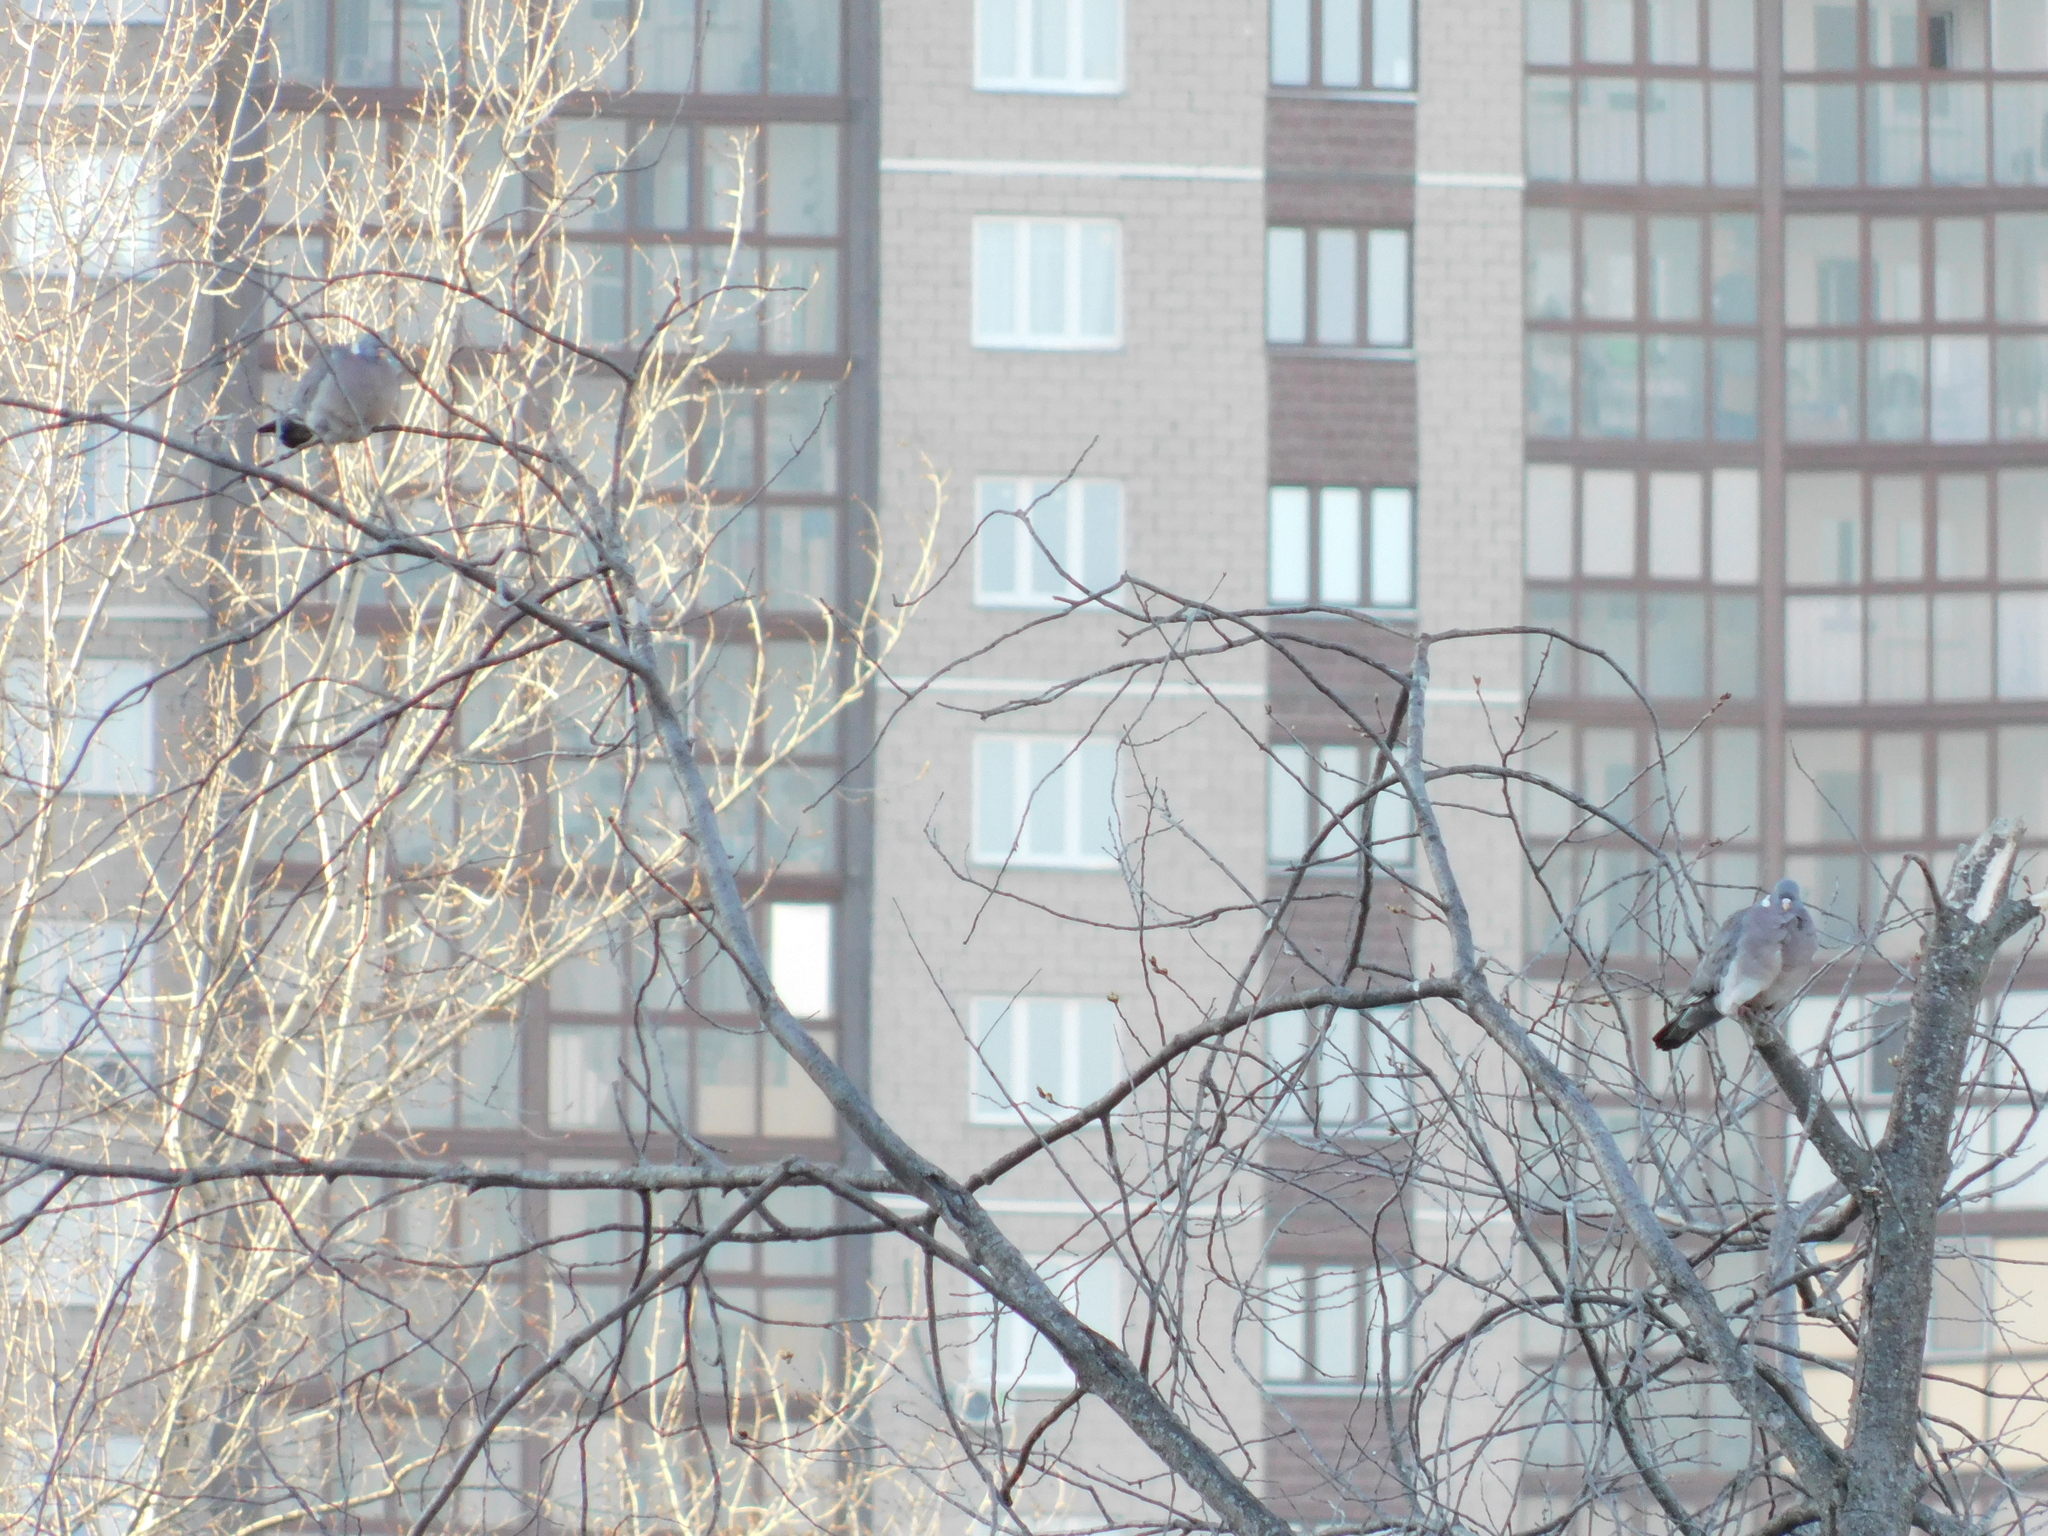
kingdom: Animalia
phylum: Chordata
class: Aves
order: Columbiformes
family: Columbidae
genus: Columba
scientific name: Columba palumbus
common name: Common wood pigeon
